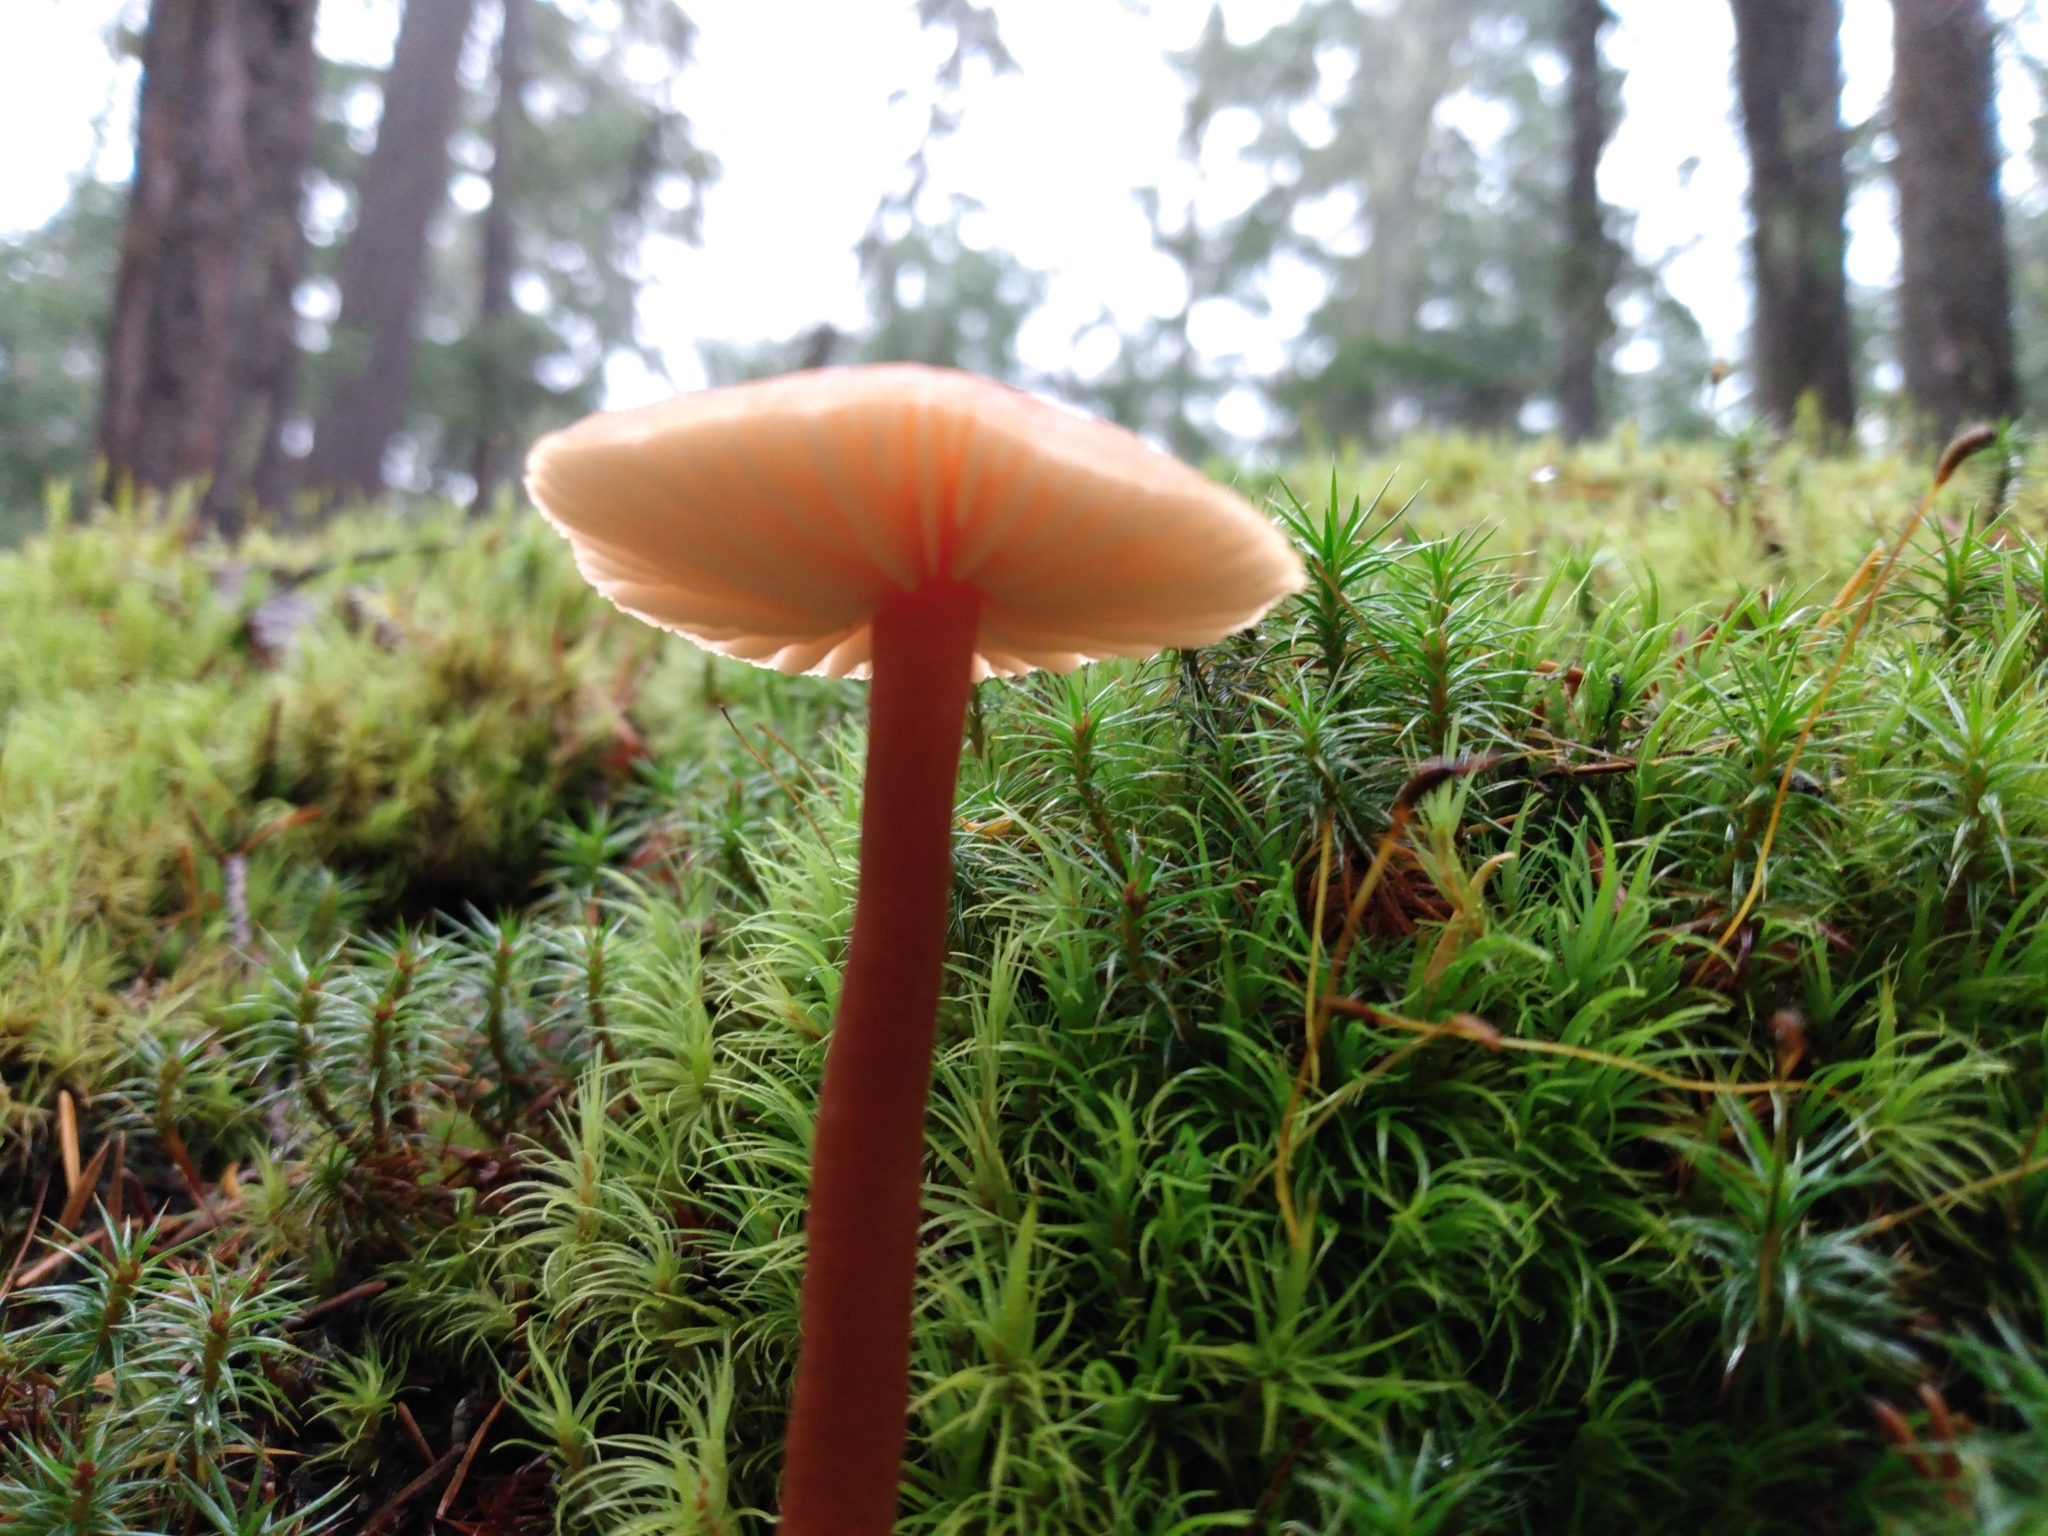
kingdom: Fungi
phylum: Basidiomycota
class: Agaricomycetes
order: Agaricales
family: Hydnangiaceae
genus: Laccaria
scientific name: Laccaria laccata
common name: Deceiver
